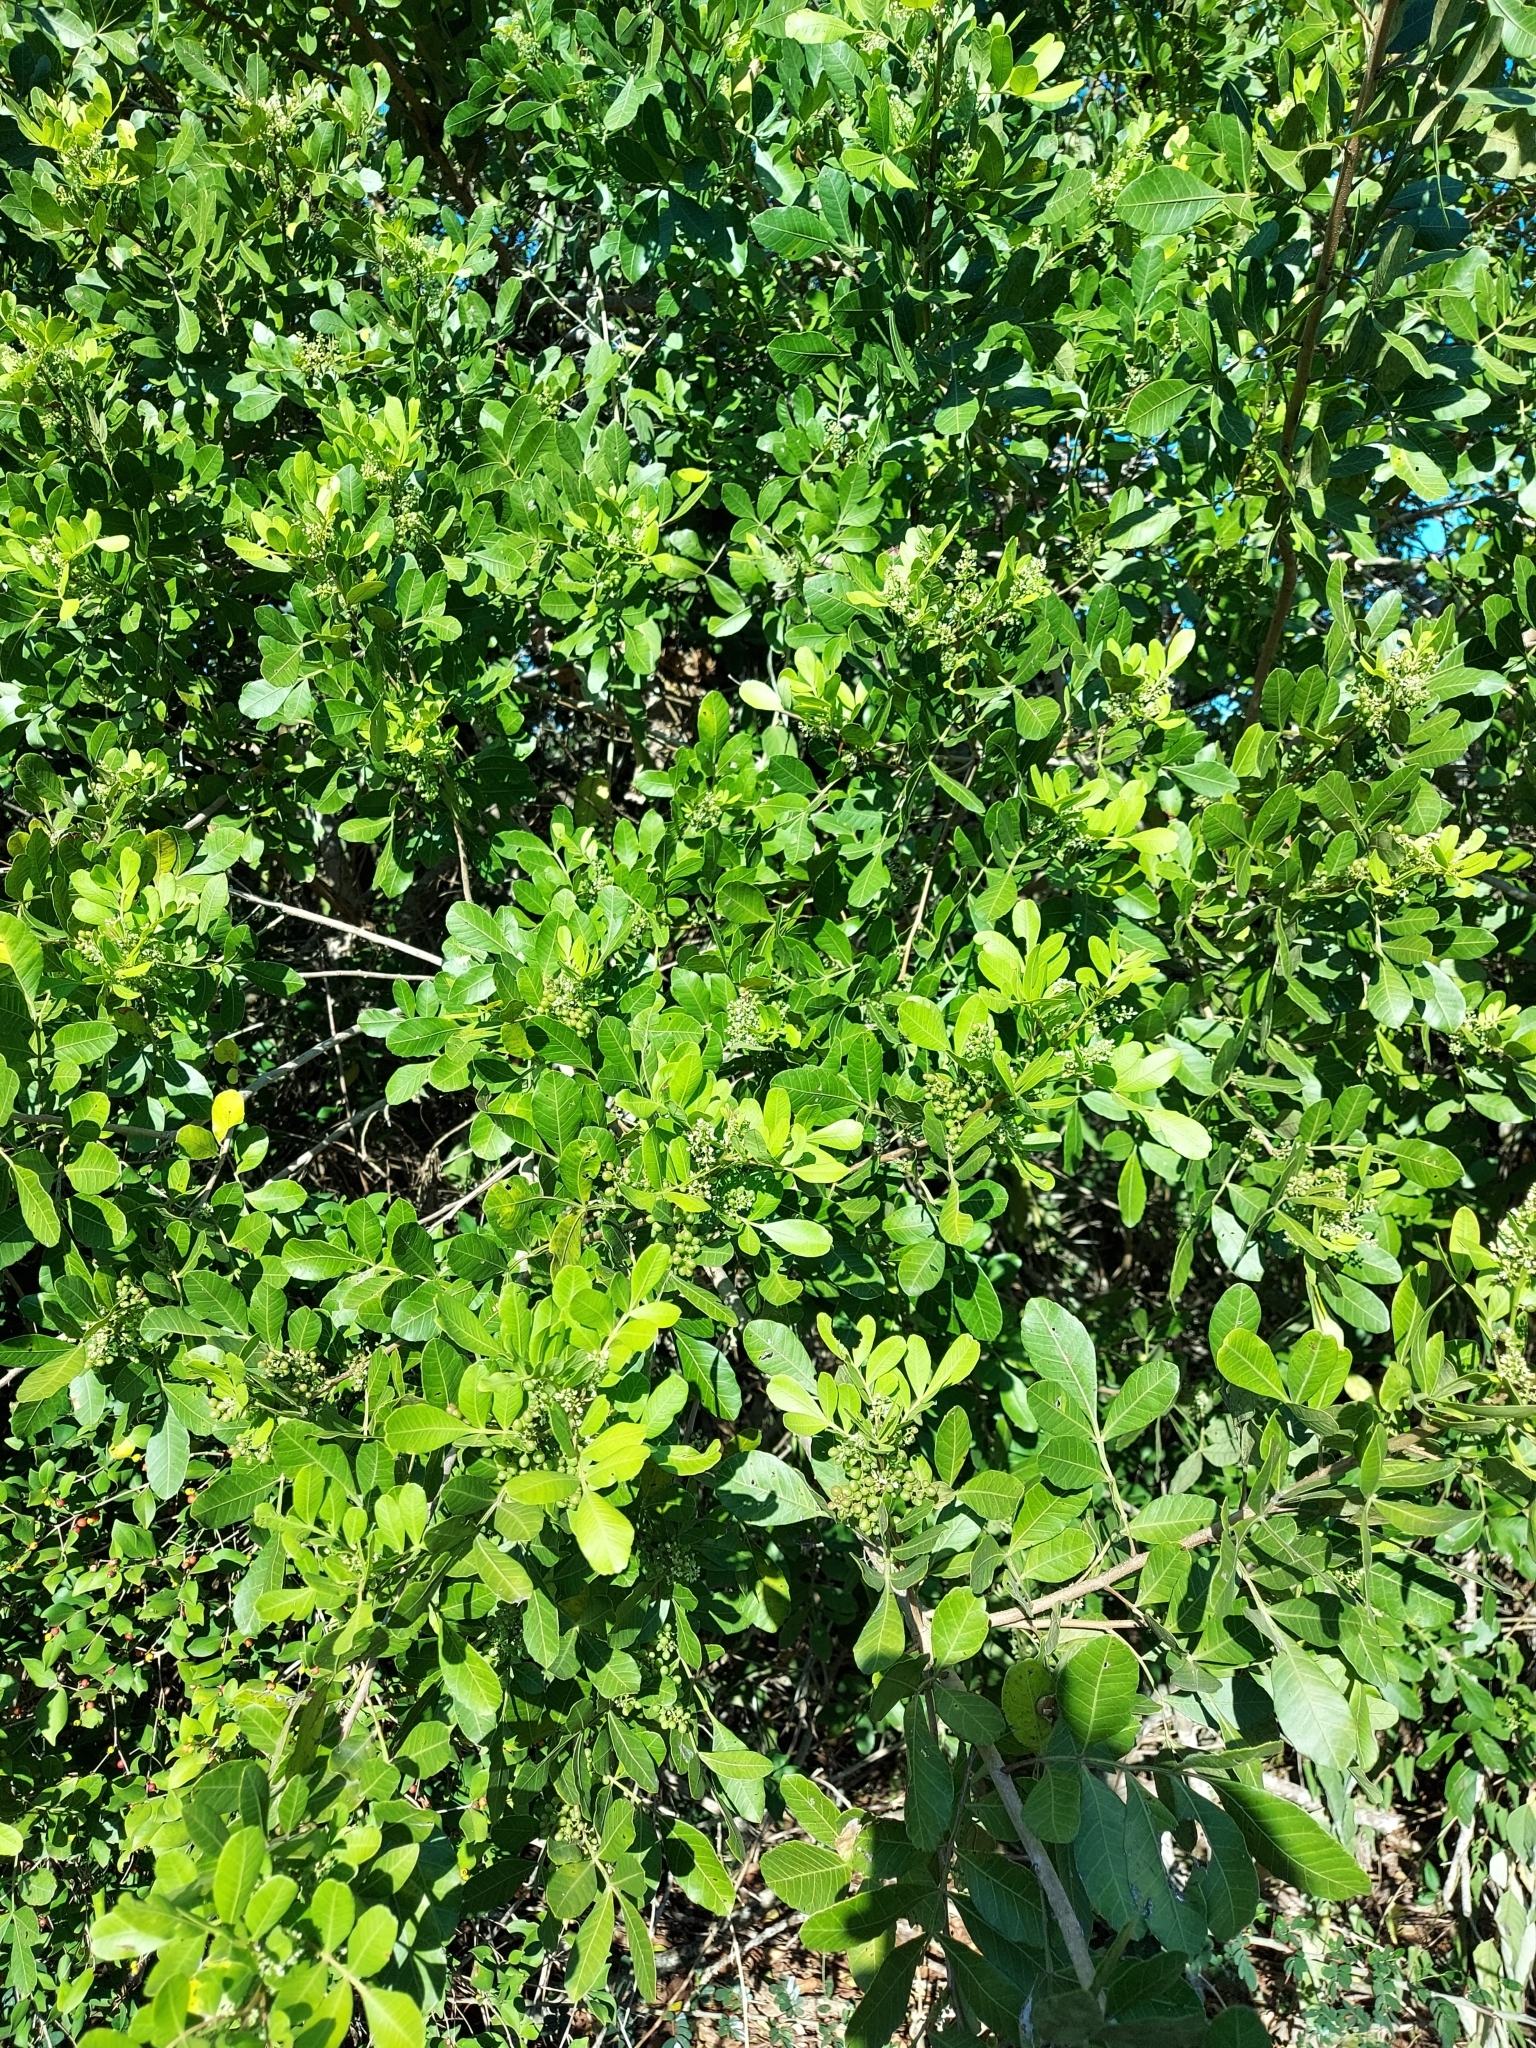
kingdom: Plantae
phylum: Tracheophyta
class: Magnoliopsida
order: Sapindales
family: Anacardiaceae
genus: Schinus
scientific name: Schinus terebinthifolia
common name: Brazilian peppertree
